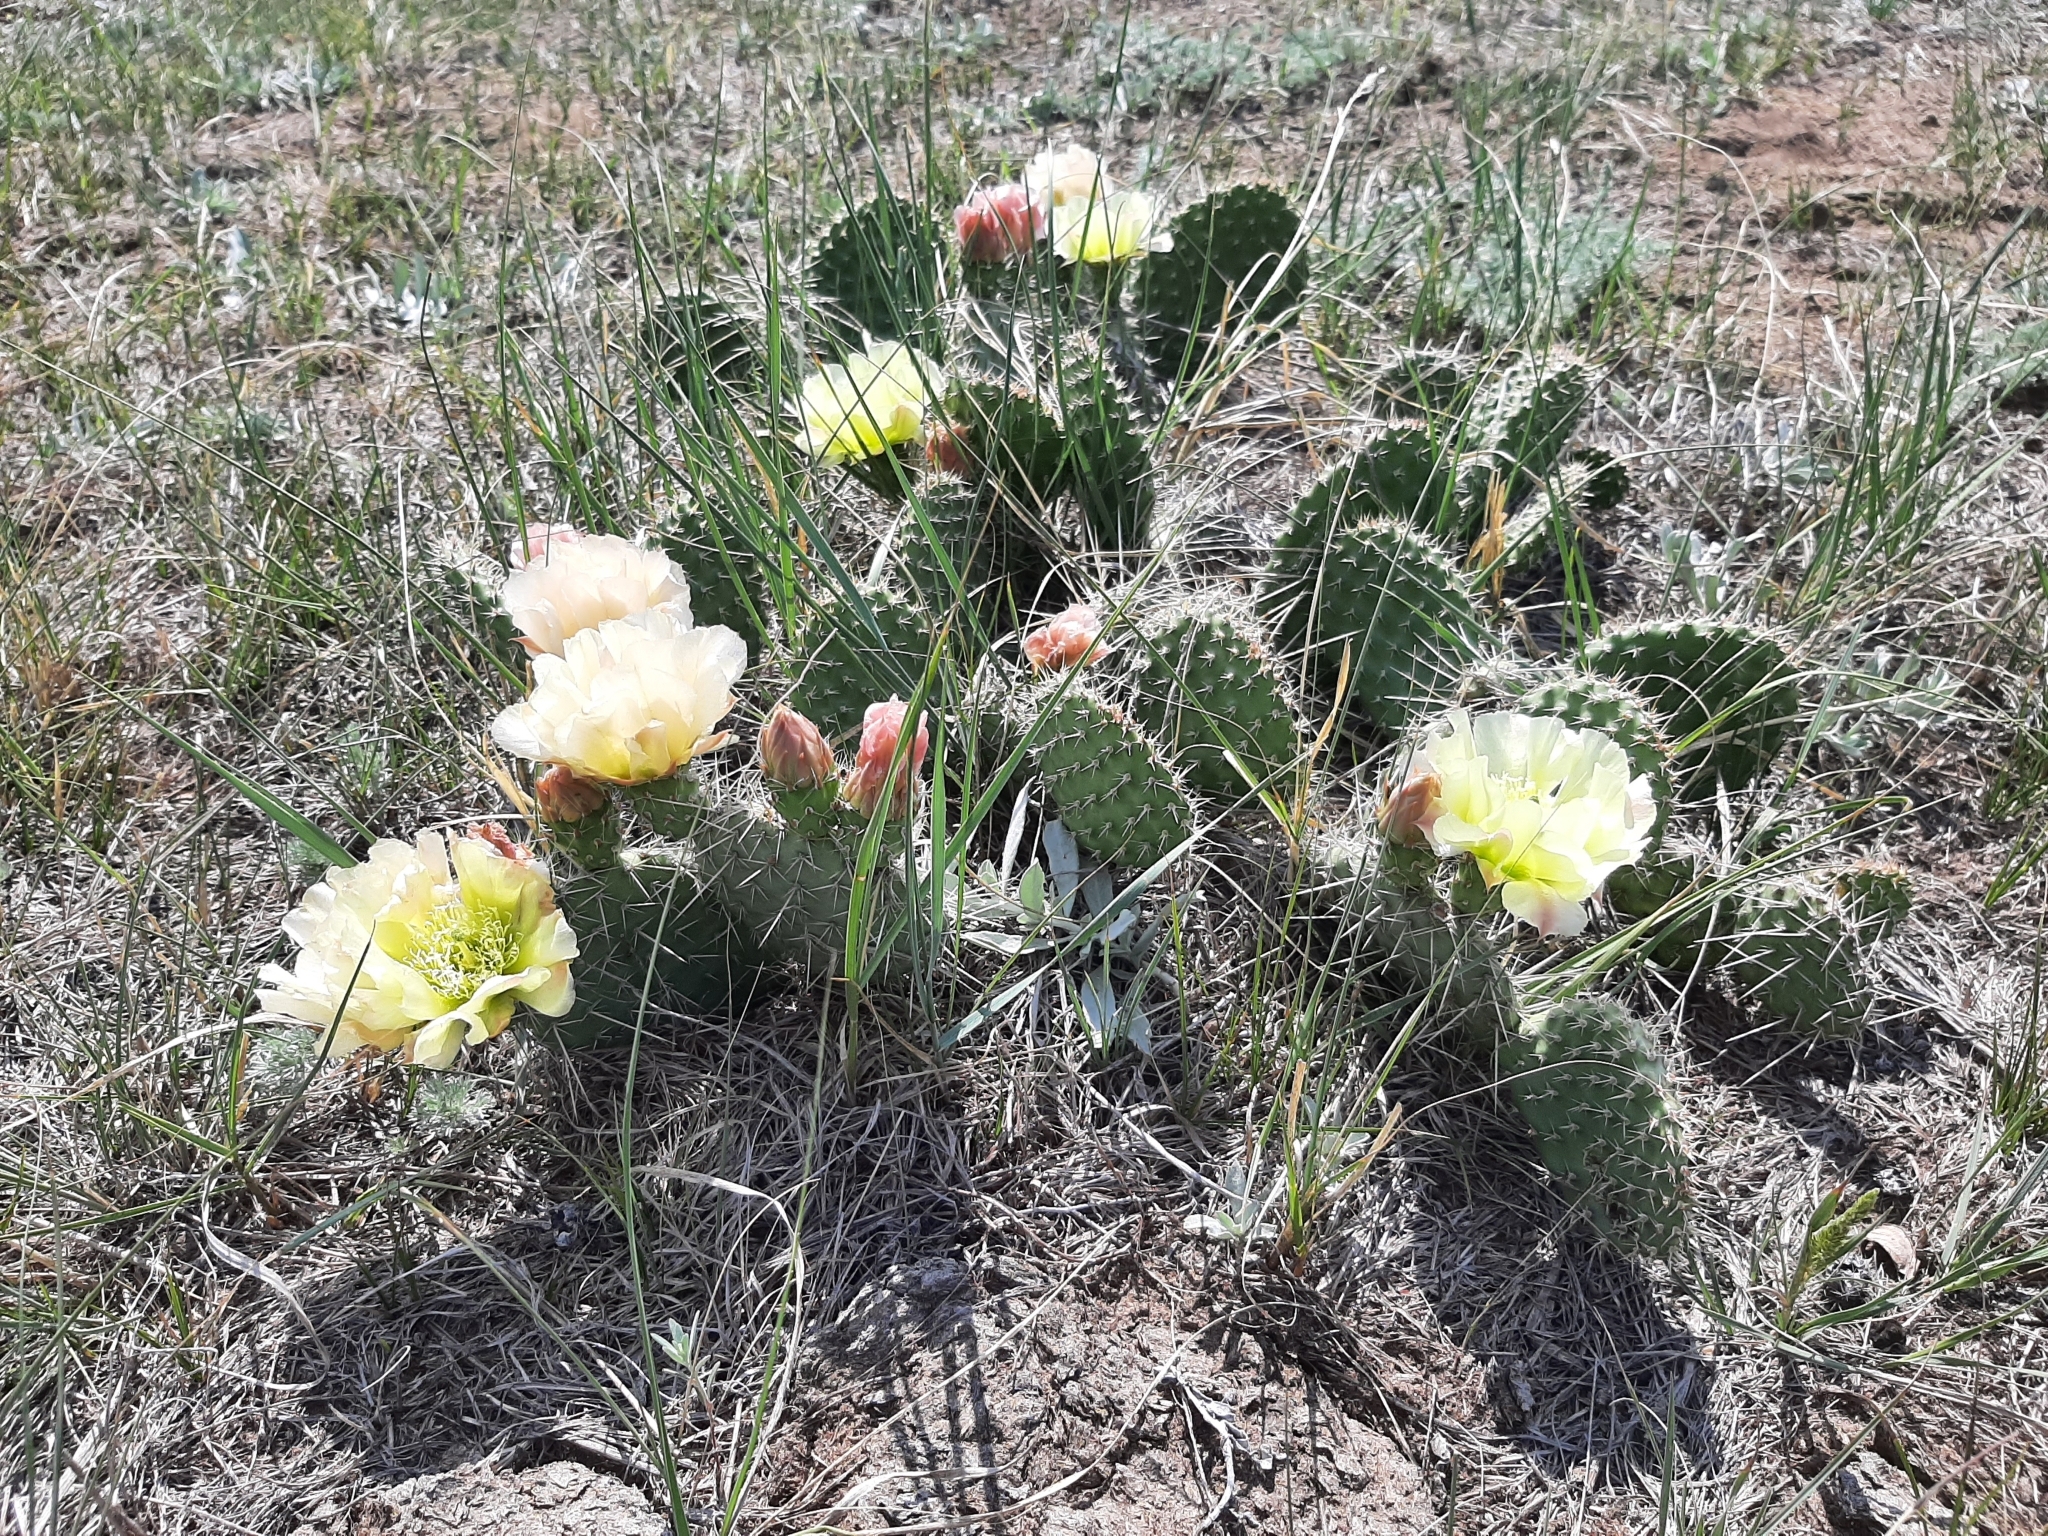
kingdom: Plantae
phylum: Tracheophyta
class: Magnoliopsida
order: Caryophyllales
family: Cactaceae
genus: Opuntia
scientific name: Opuntia polyacantha
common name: Plains prickly-pear
